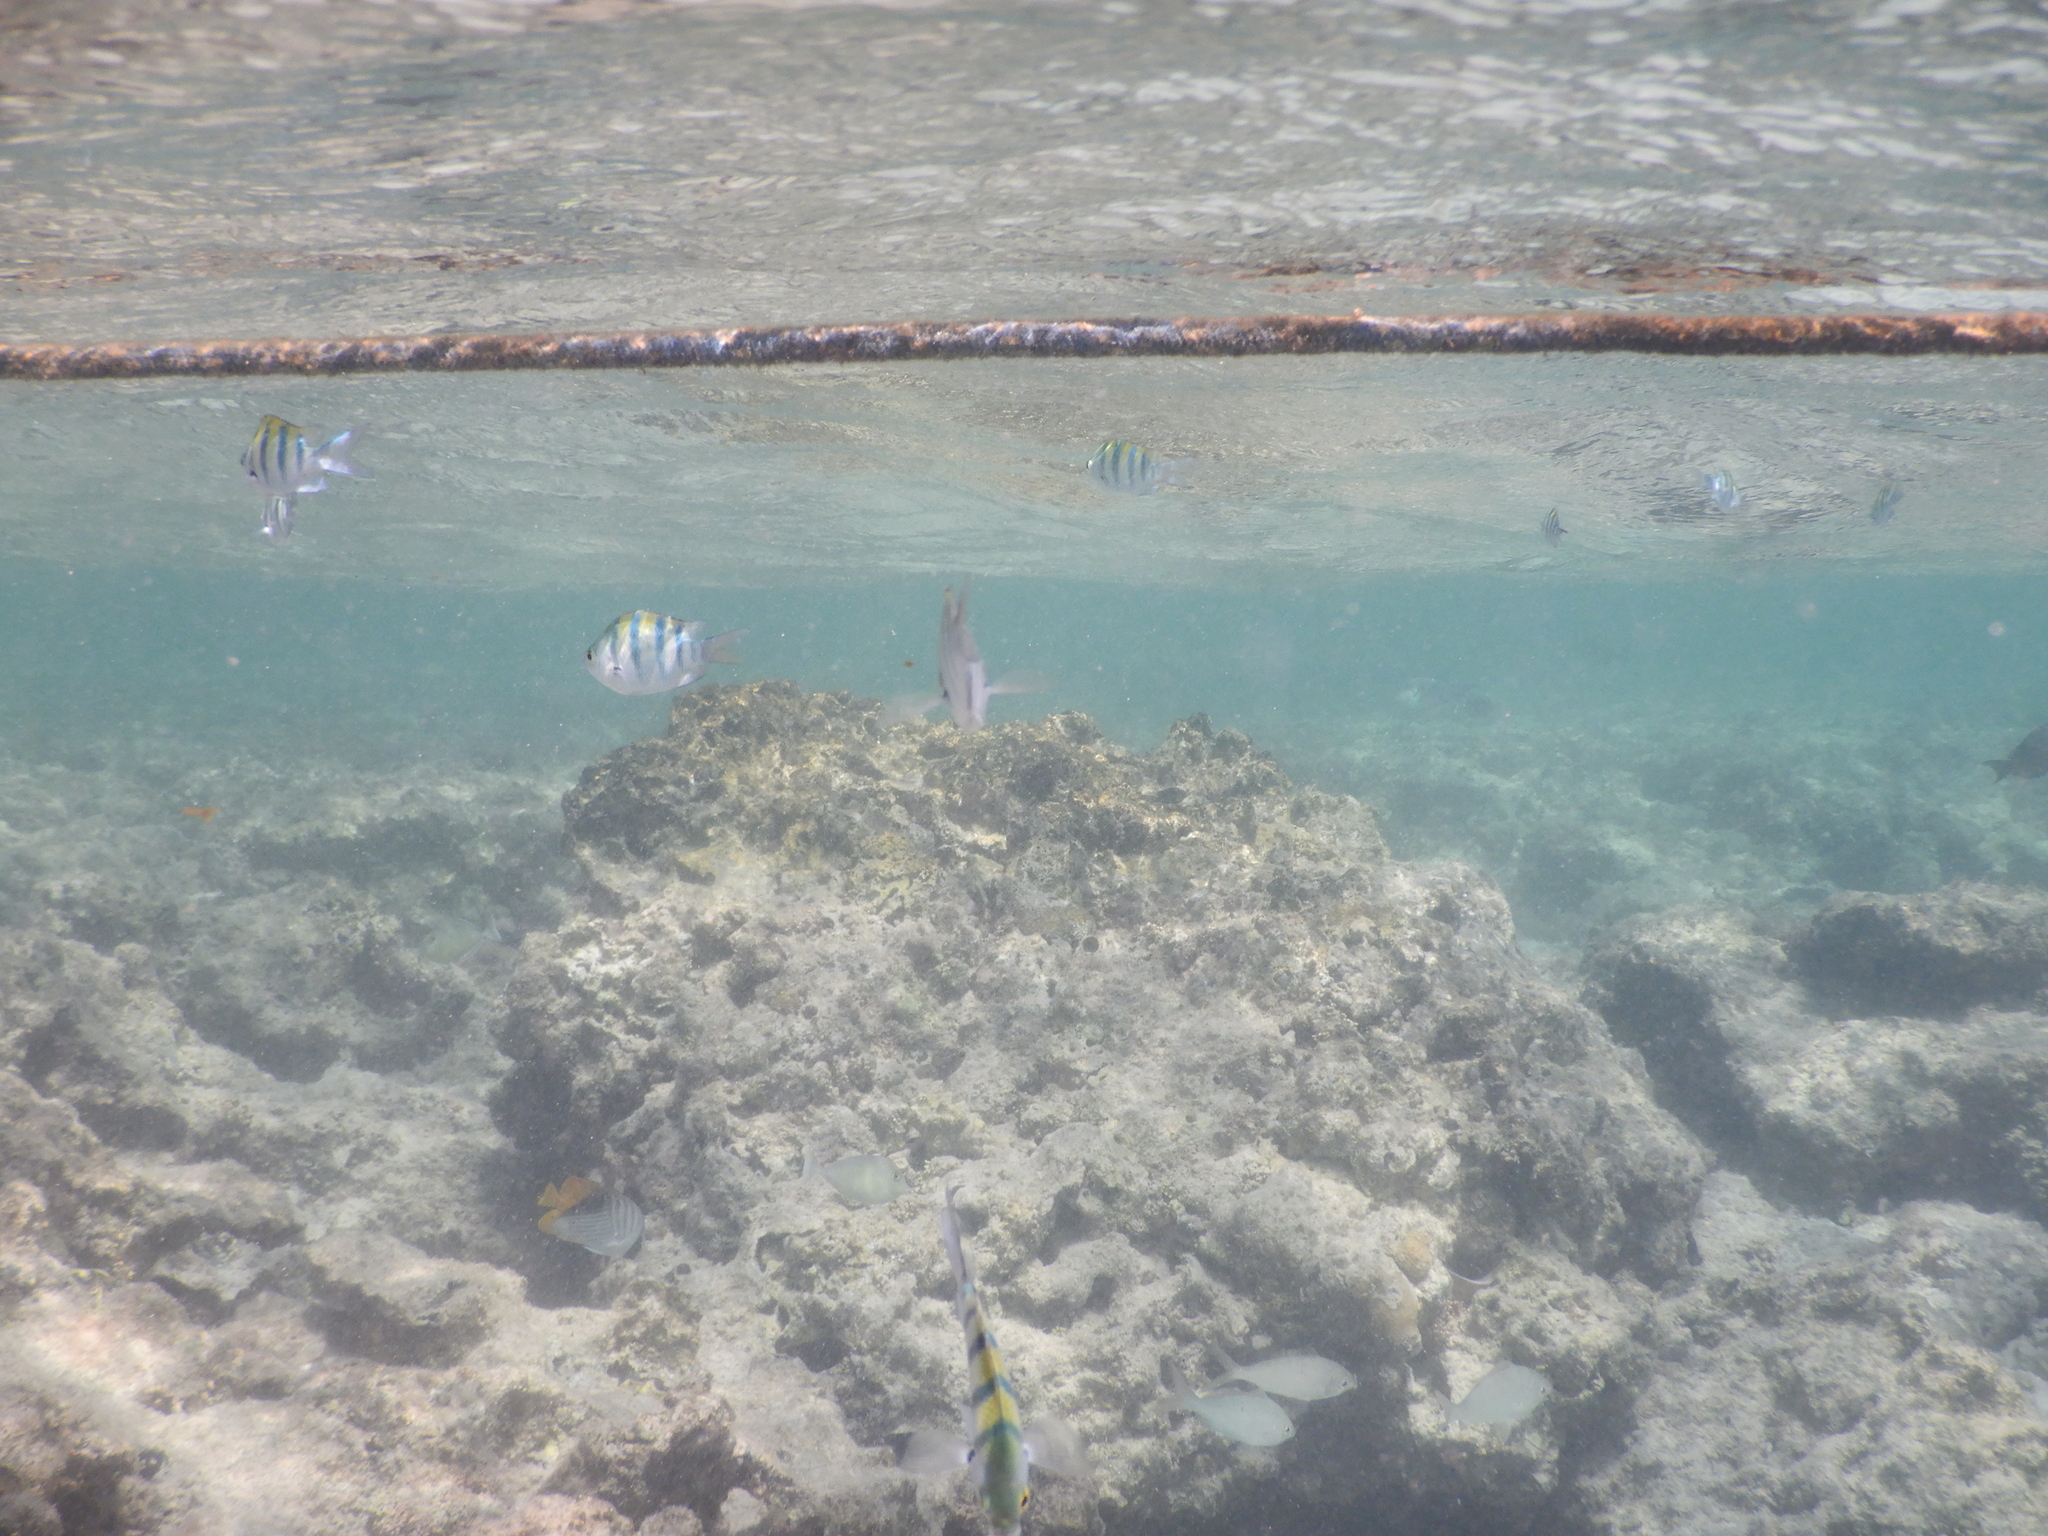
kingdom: Animalia
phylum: Chordata
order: Perciformes
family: Pomacentridae
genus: Abudefduf
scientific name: Abudefduf vaigiensis
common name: Indo-pacific sergeant
